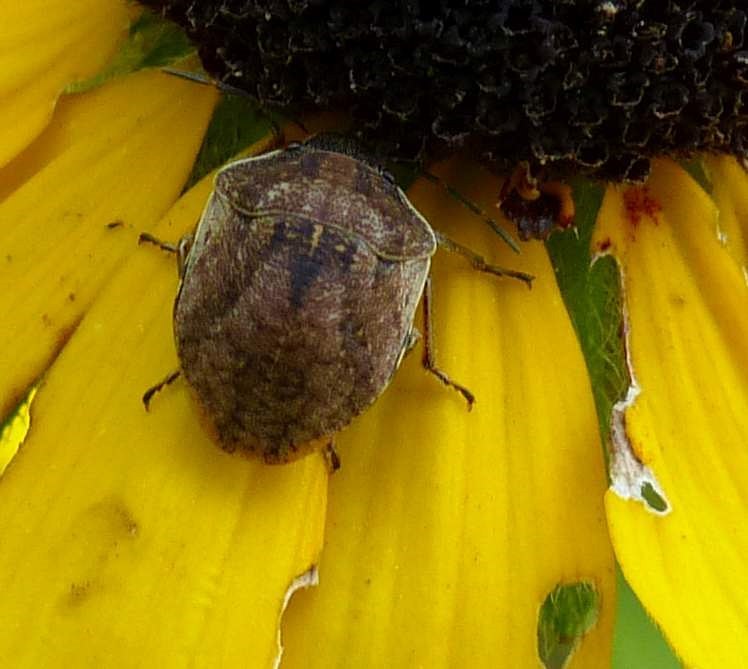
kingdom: Animalia
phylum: Arthropoda
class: Insecta
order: Hemiptera
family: Scutelleridae
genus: Homaemus
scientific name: Homaemus aeneifrons
